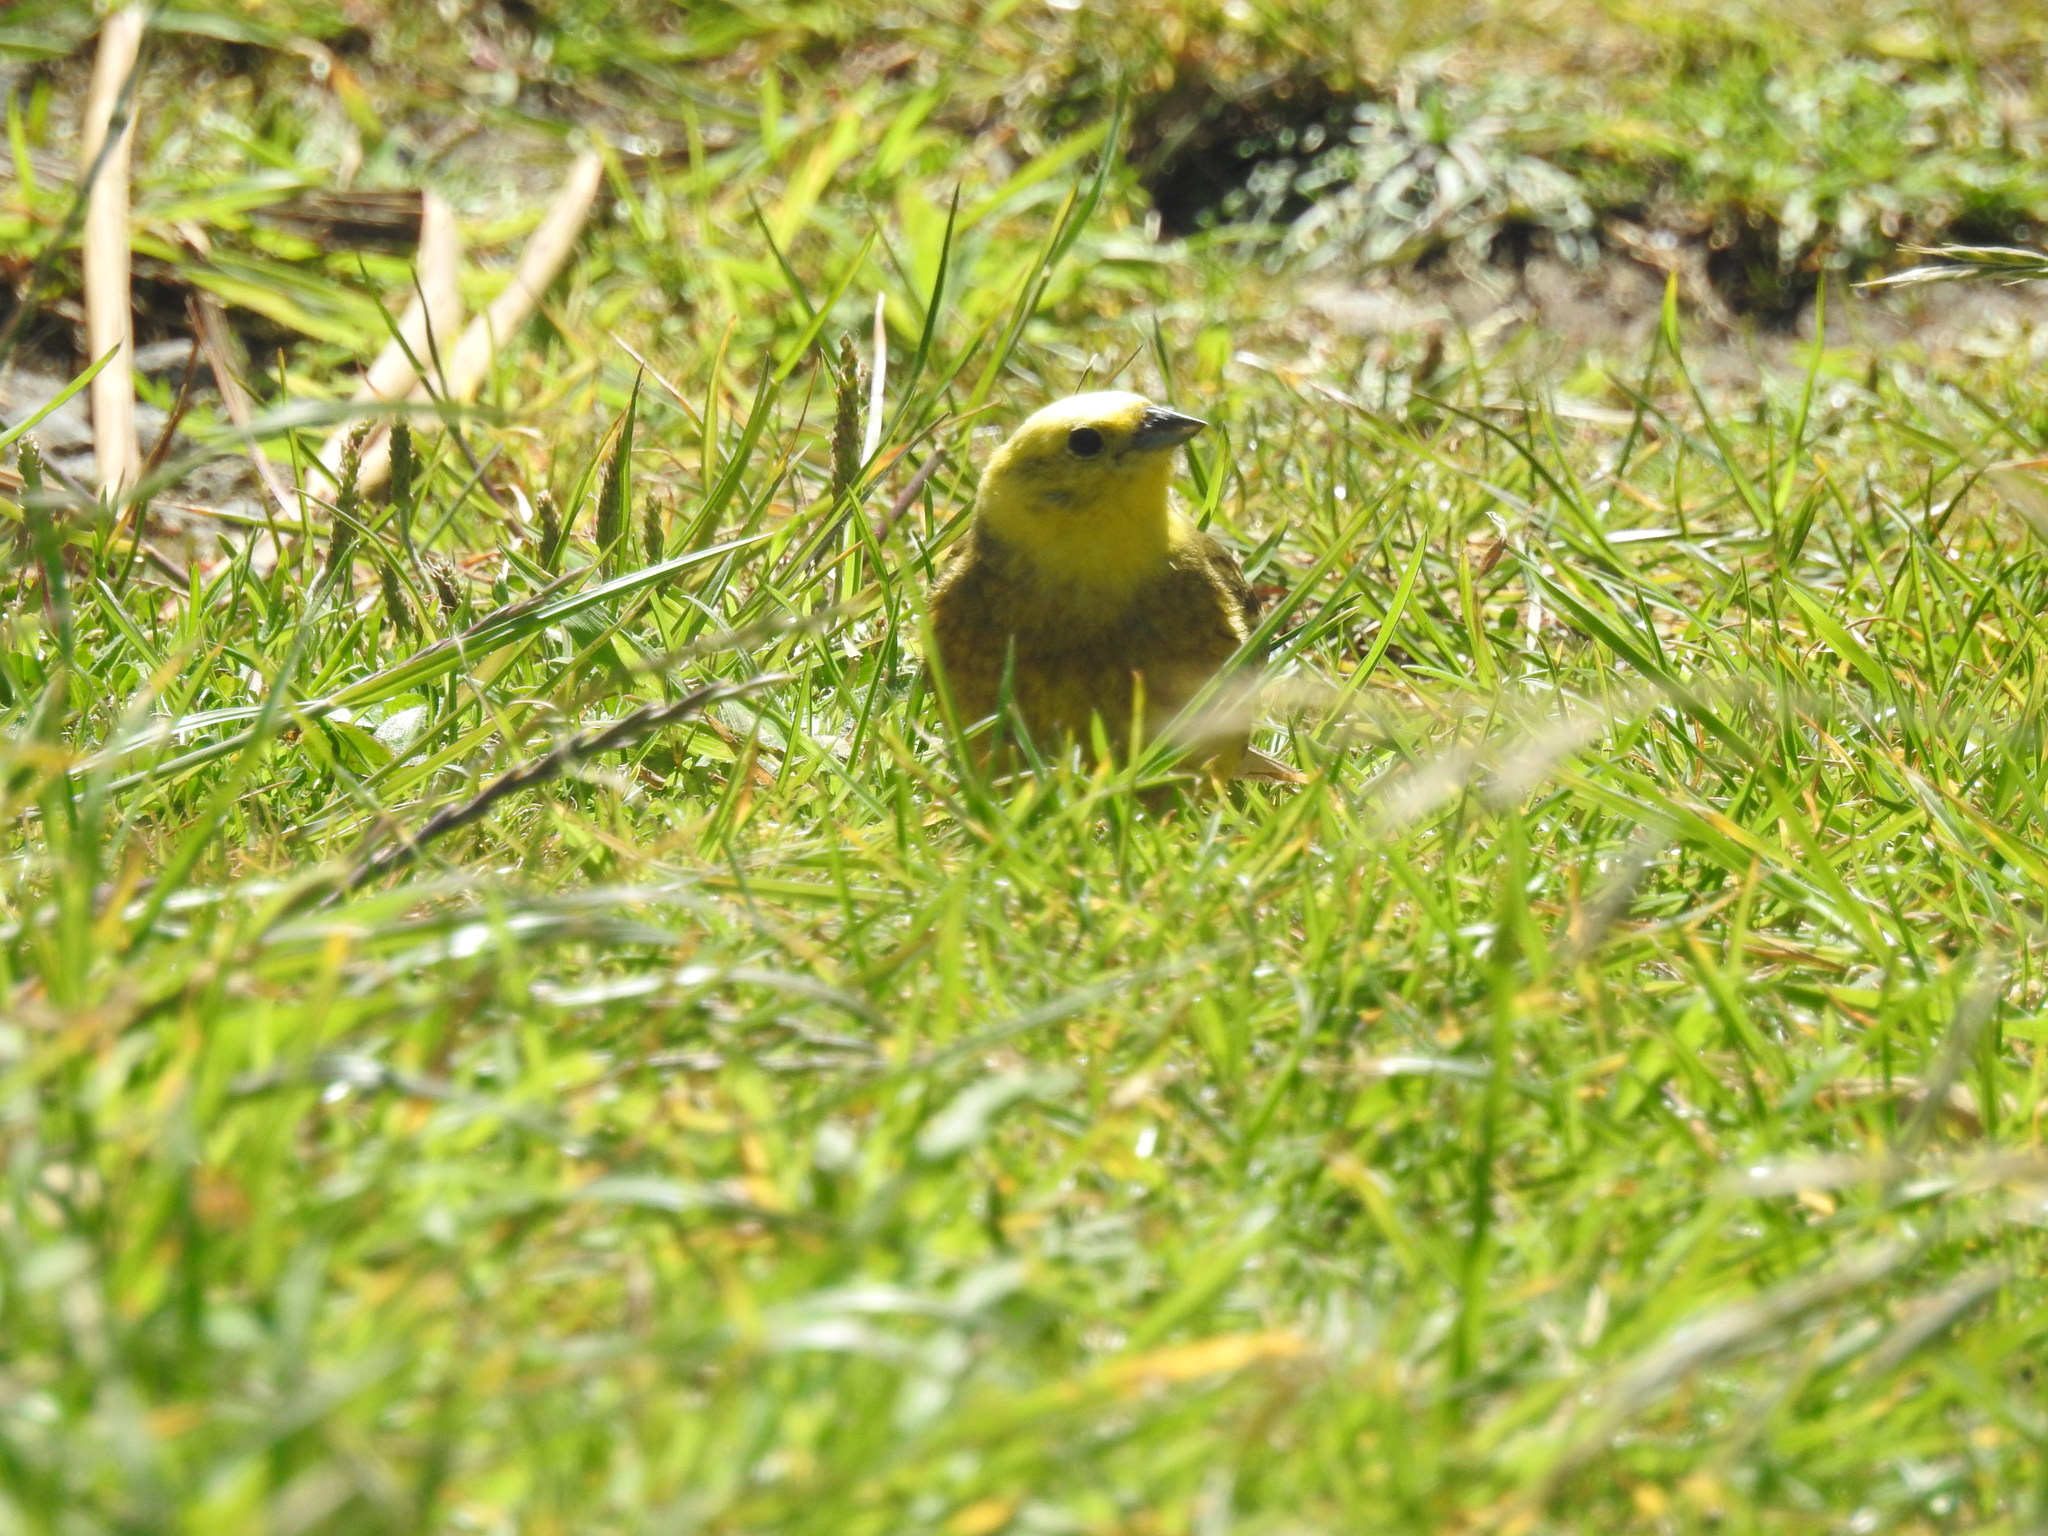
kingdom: Animalia
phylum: Chordata
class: Aves
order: Passeriformes
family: Emberizidae
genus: Emberiza
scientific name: Emberiza citrinella
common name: Yellowhammer
